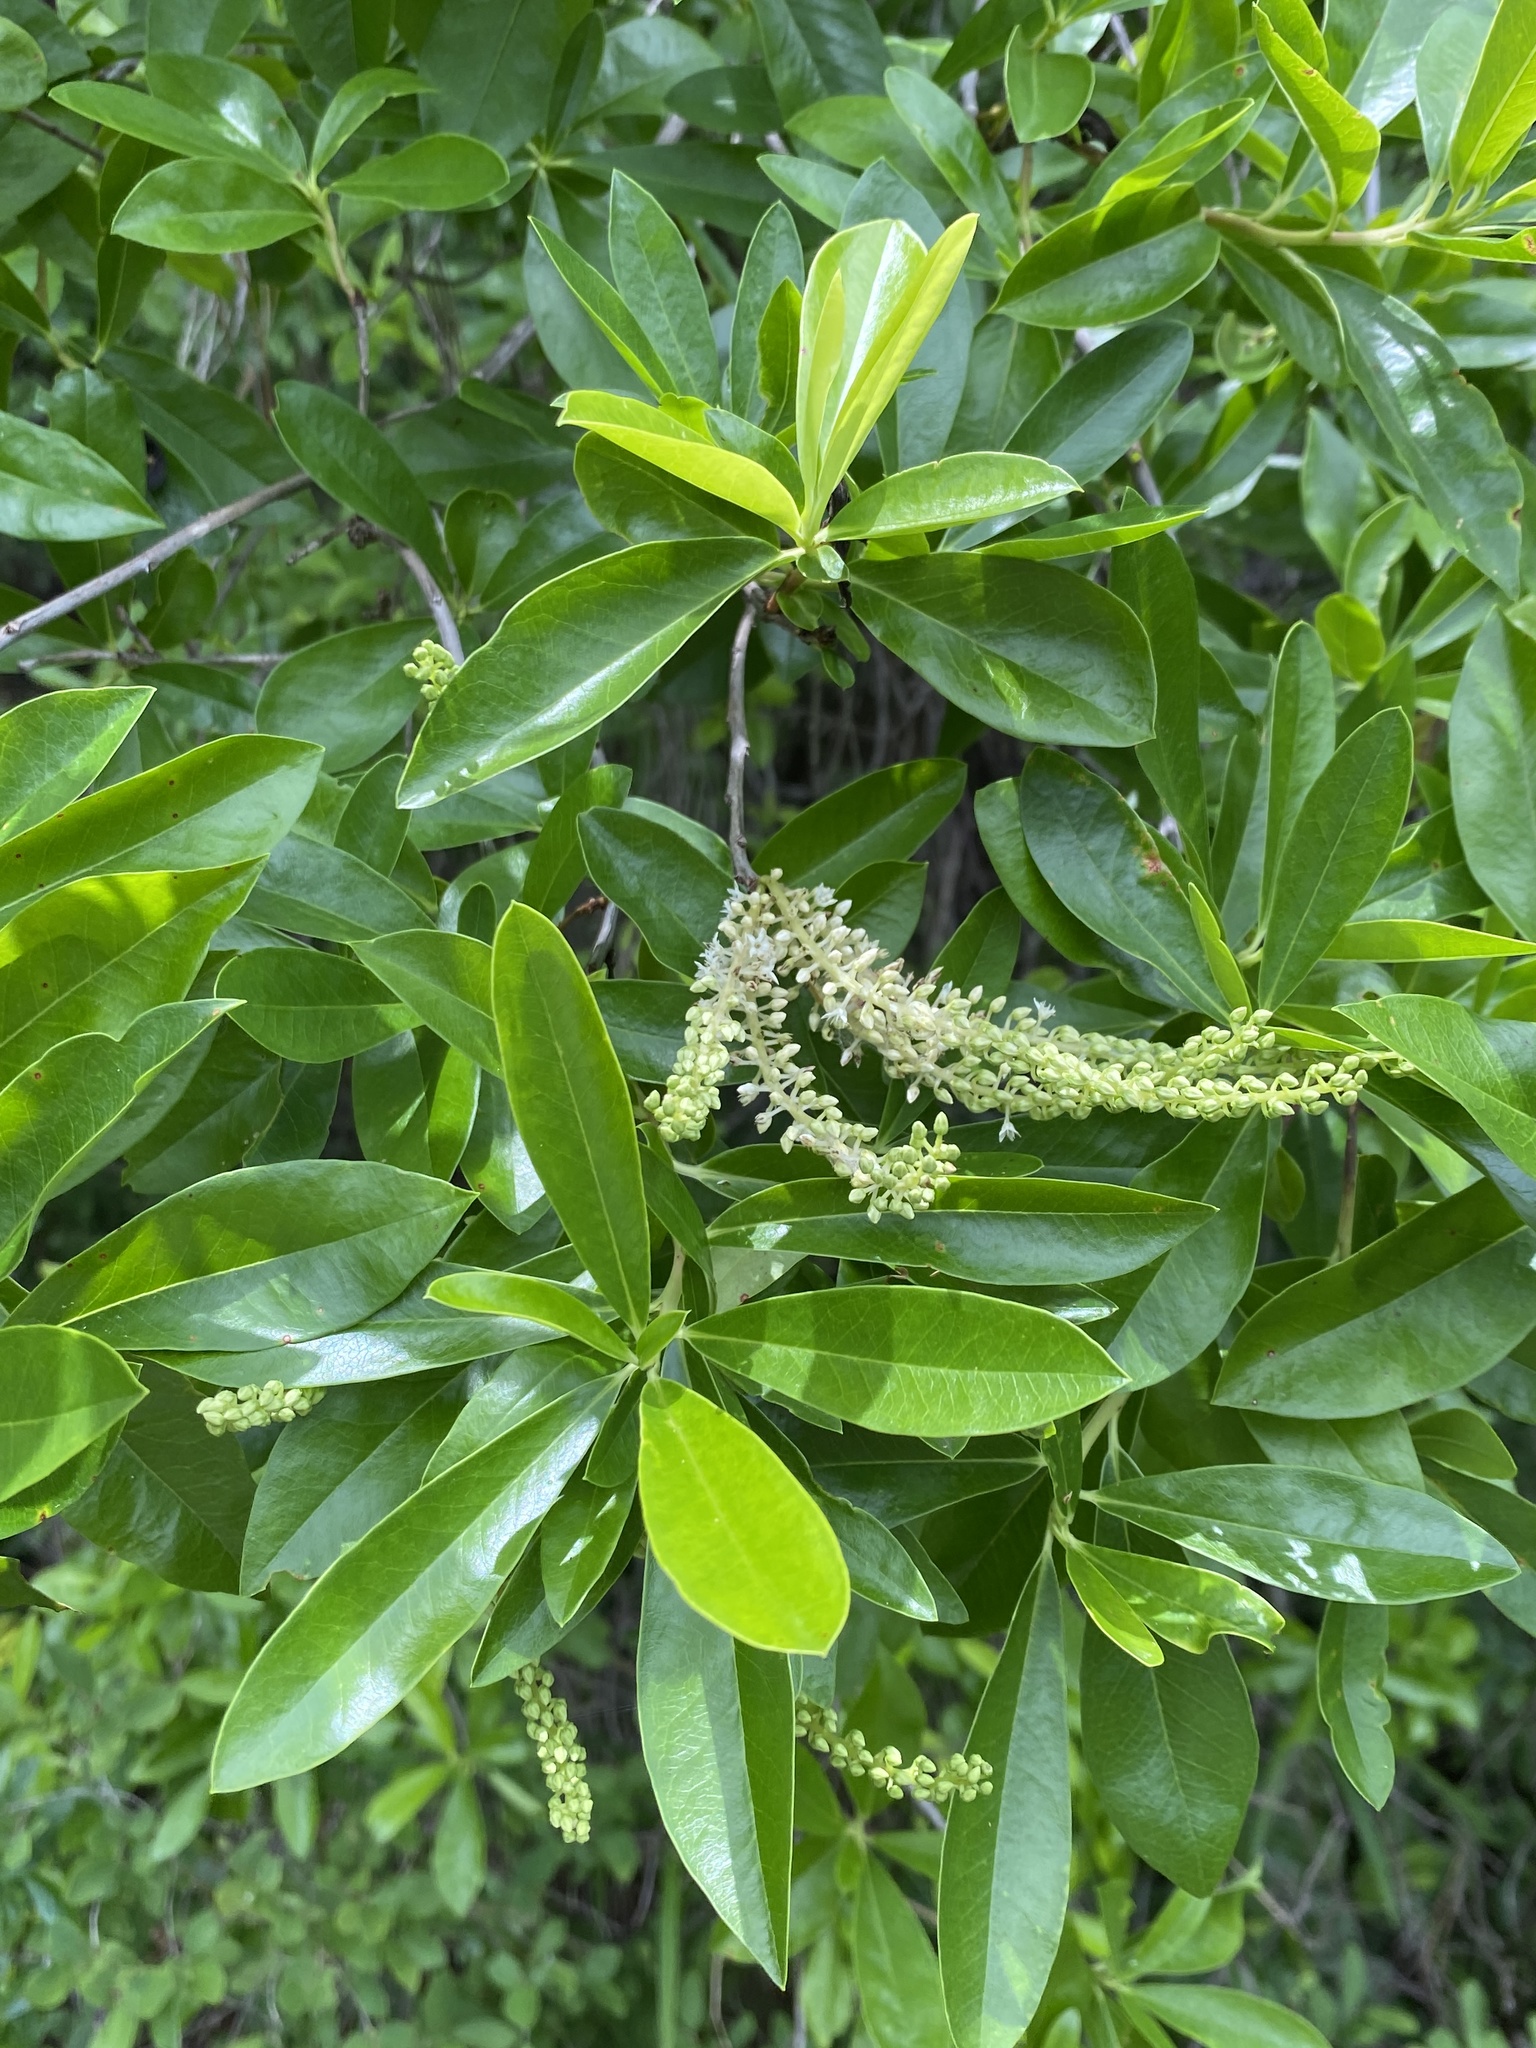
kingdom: Plantae
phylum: Tracheophyta
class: Magnoliopsida
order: Ericales
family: Cyrillaceae
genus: Cyrilla
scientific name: Cyrilla racemiflora
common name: Black titi
